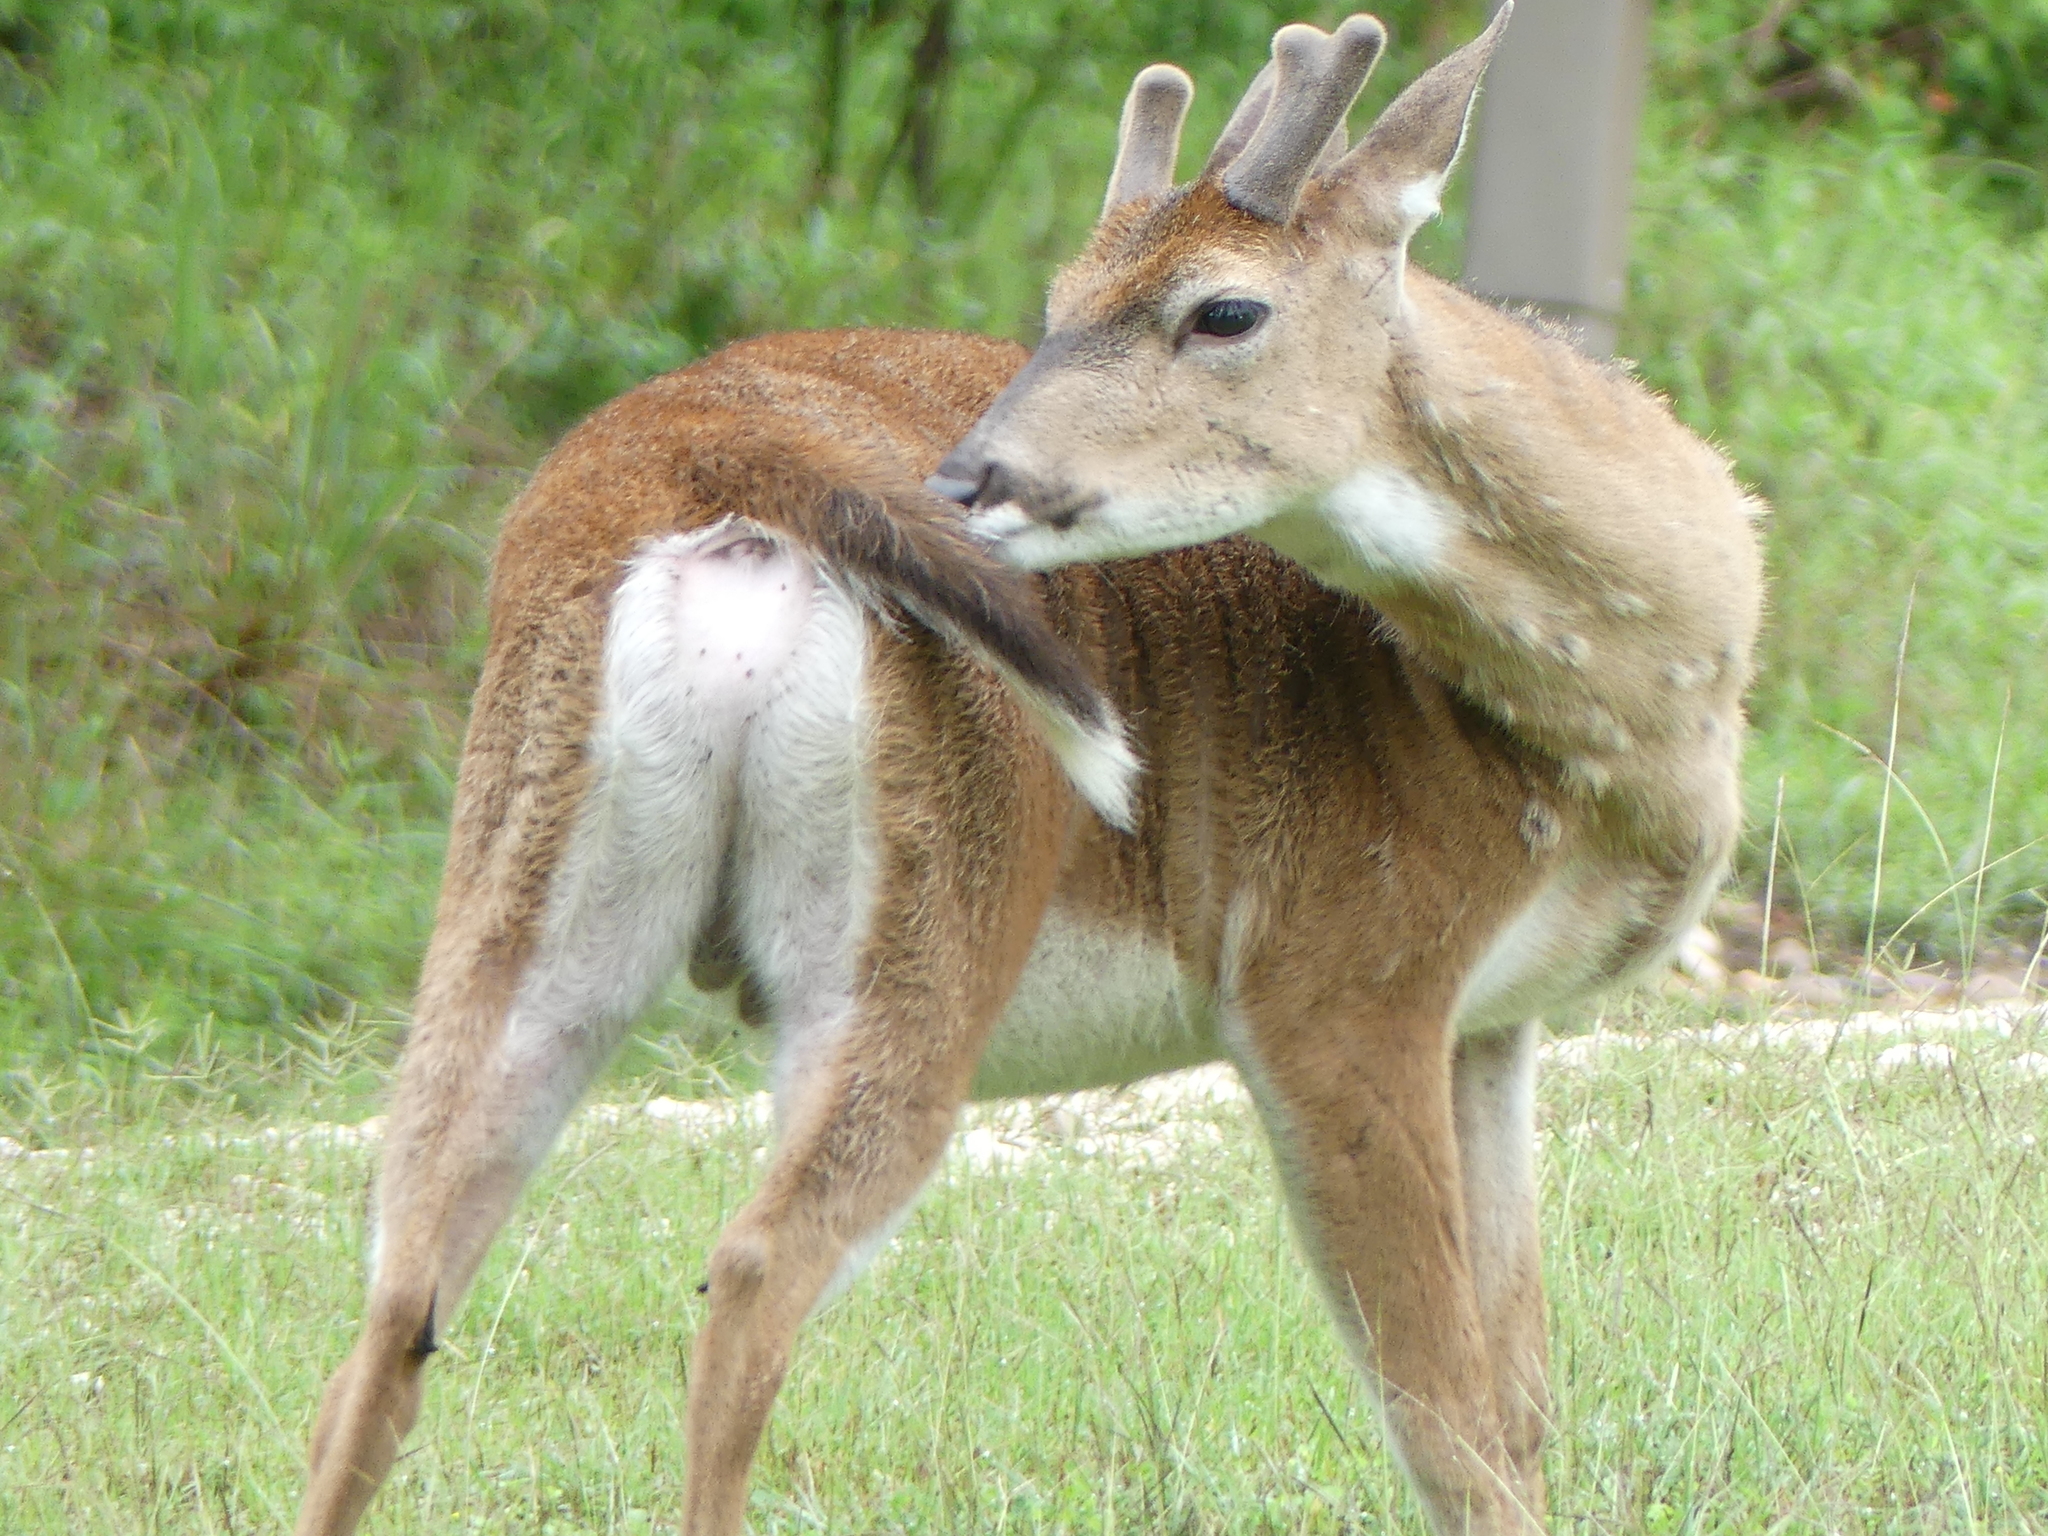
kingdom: Animalia
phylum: Chordata
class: Mammalia
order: Artiodactyla
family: Cervidae
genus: Odocoileus
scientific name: Odocoileus virginianus
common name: White-tailed deer
